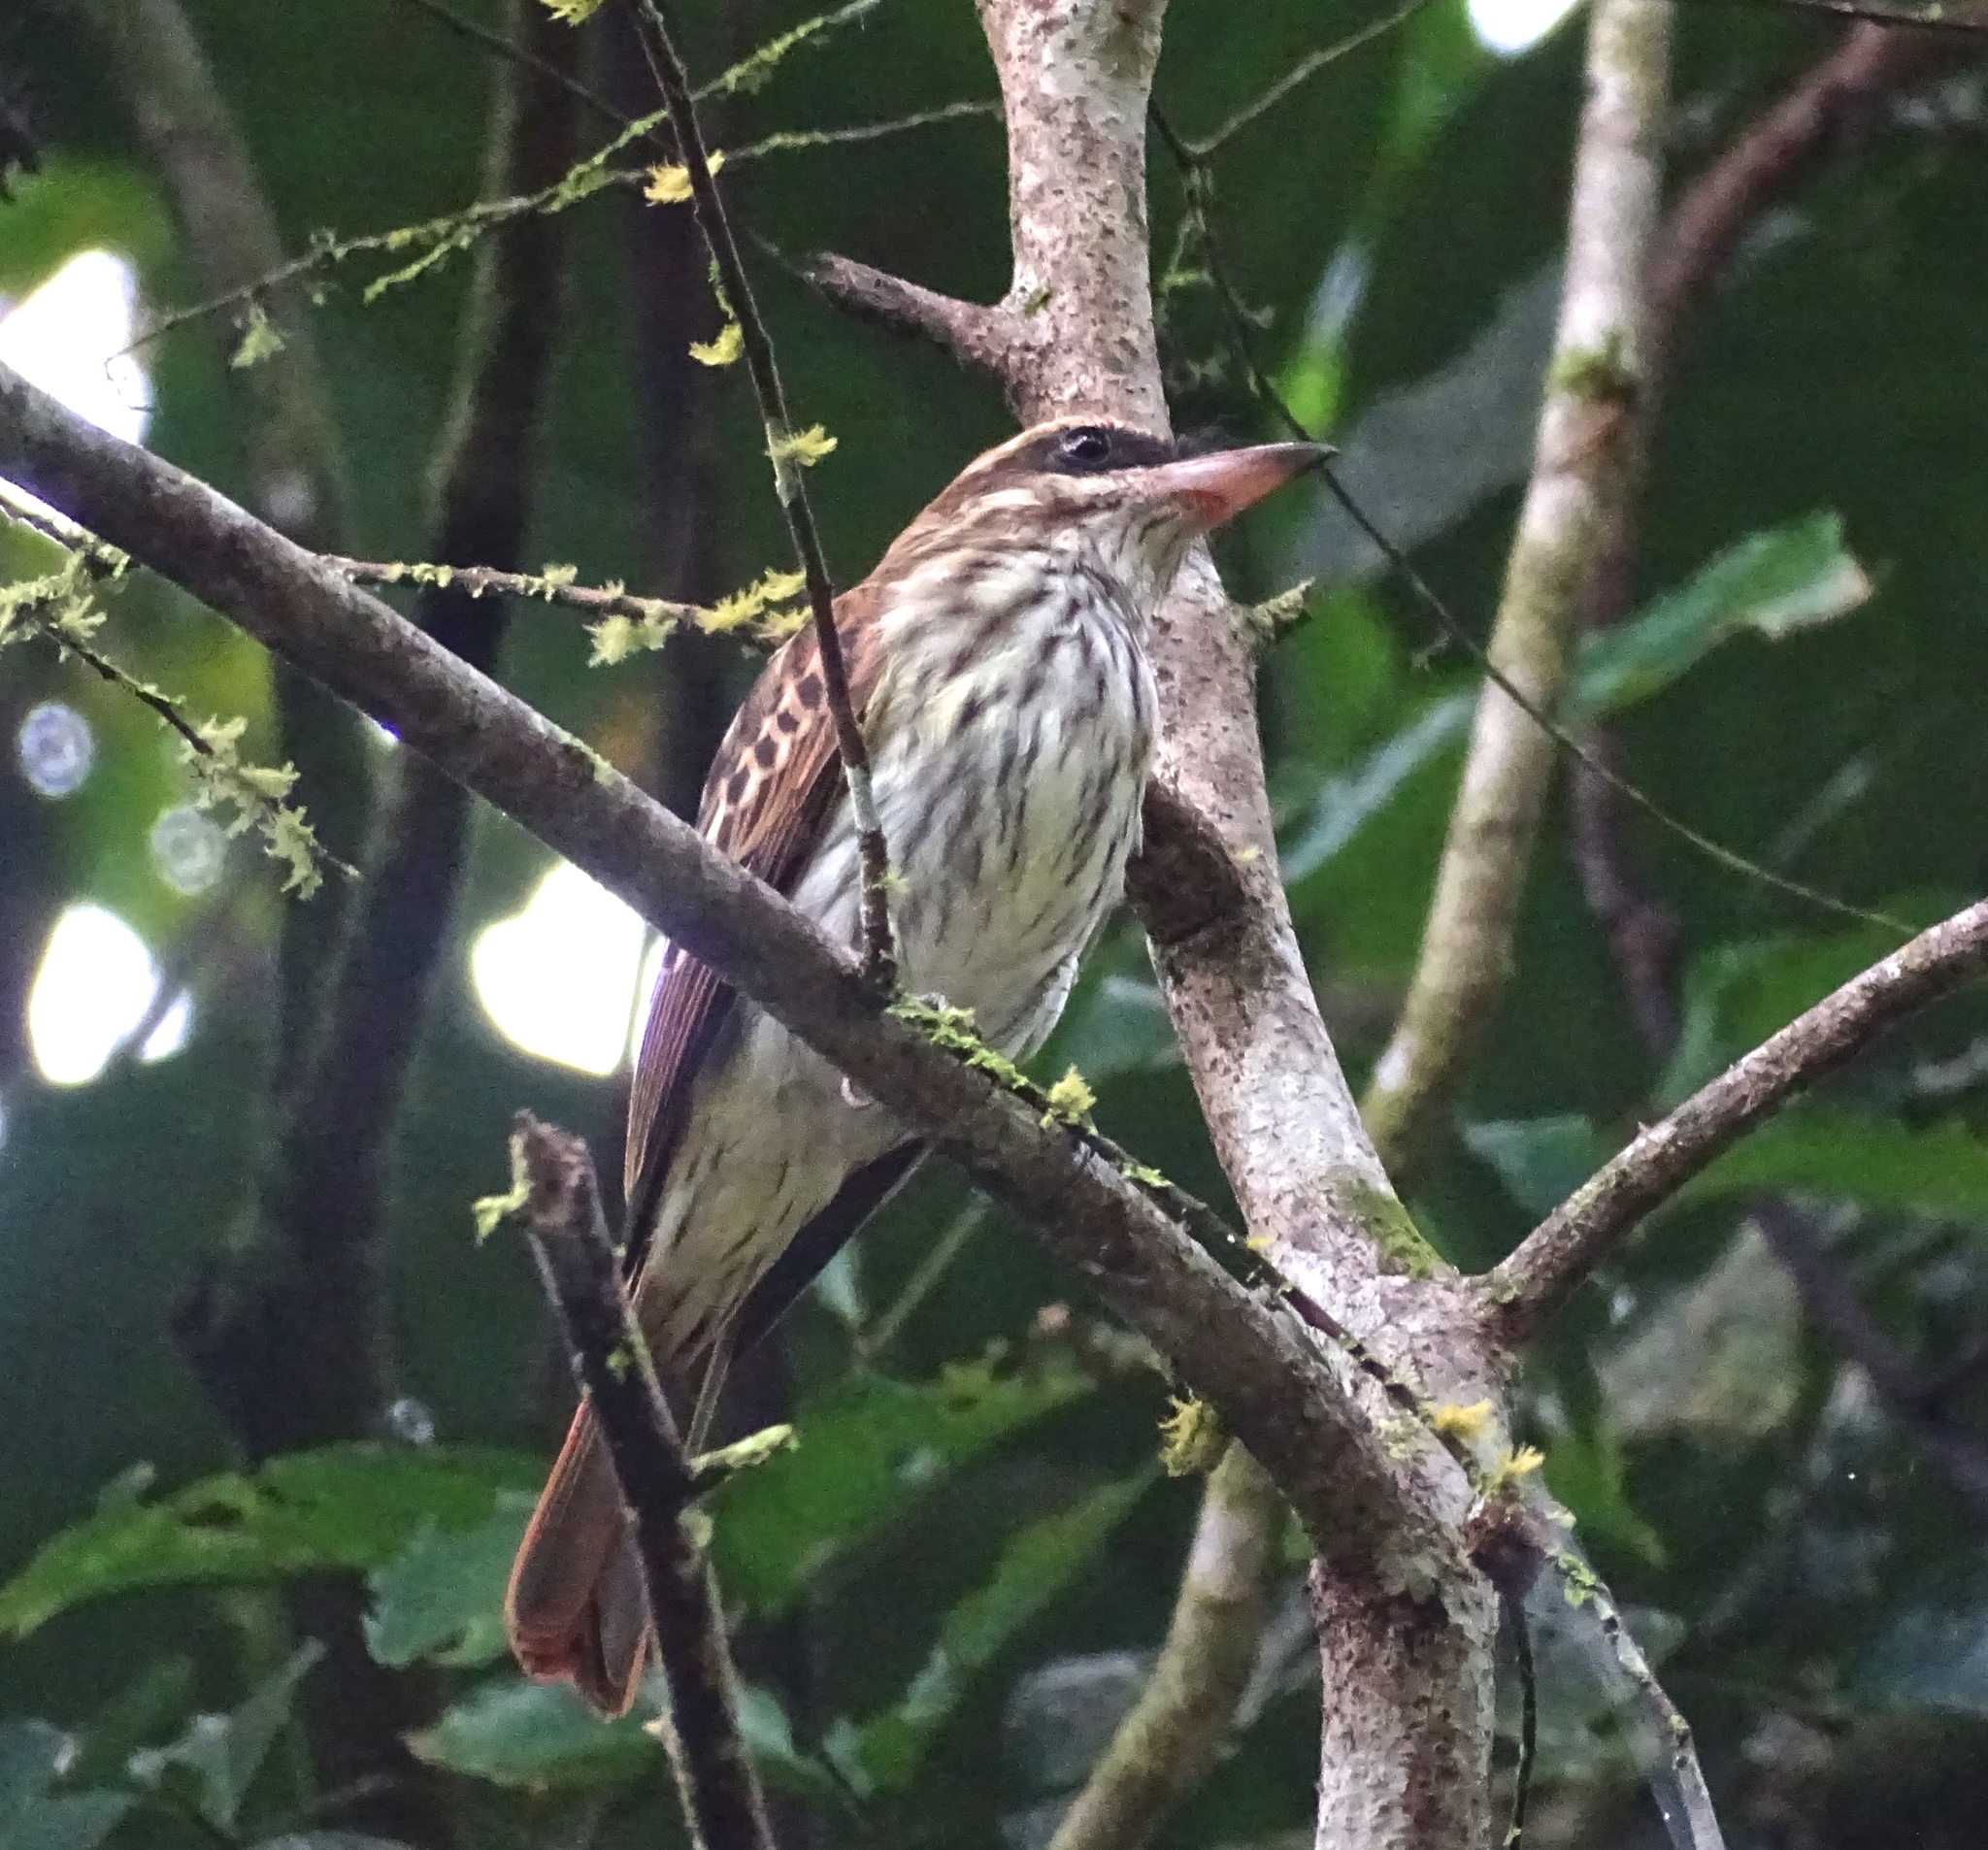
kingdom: Animalia
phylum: Chordata
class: Aves
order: Passeriformes
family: Tyrannidae
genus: Myiodynastes
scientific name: Myiodynastes maculatus
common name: Streaked flycatcher
